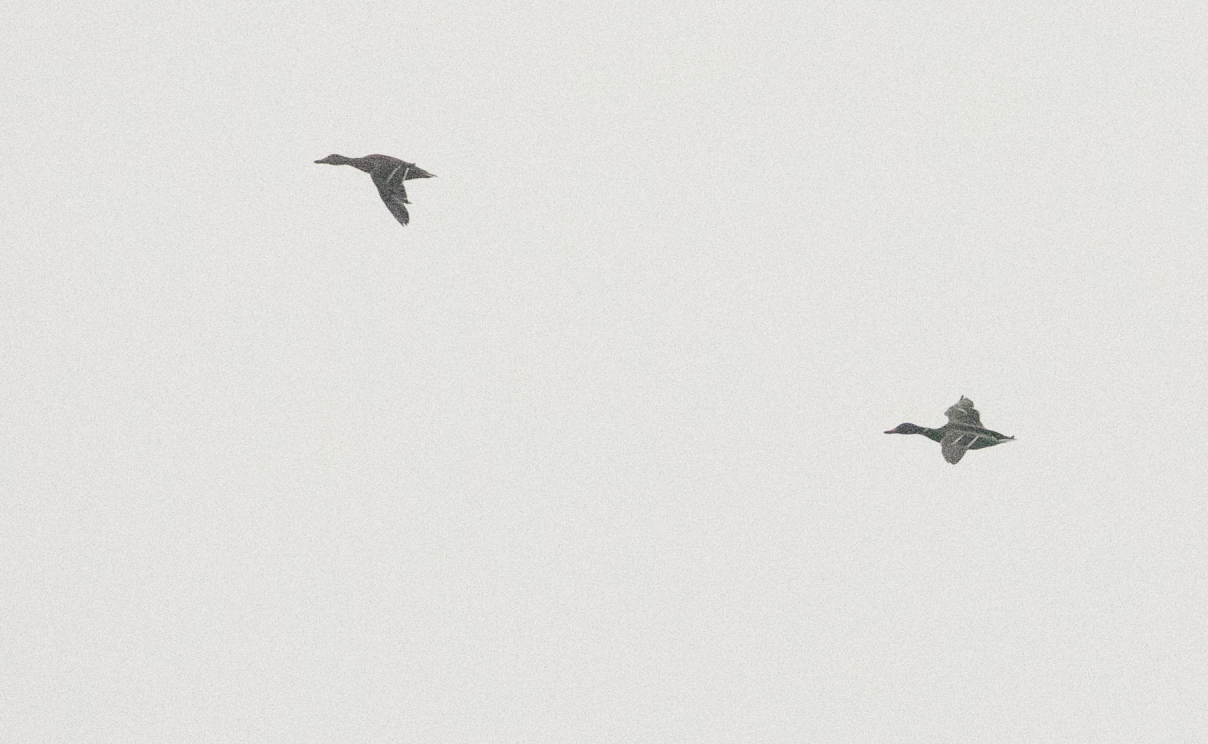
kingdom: Animalia
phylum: Chordata
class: Aves
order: Anseriformes
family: Anatidae
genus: Anas
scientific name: Anas platyrhynchos
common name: Mallard
